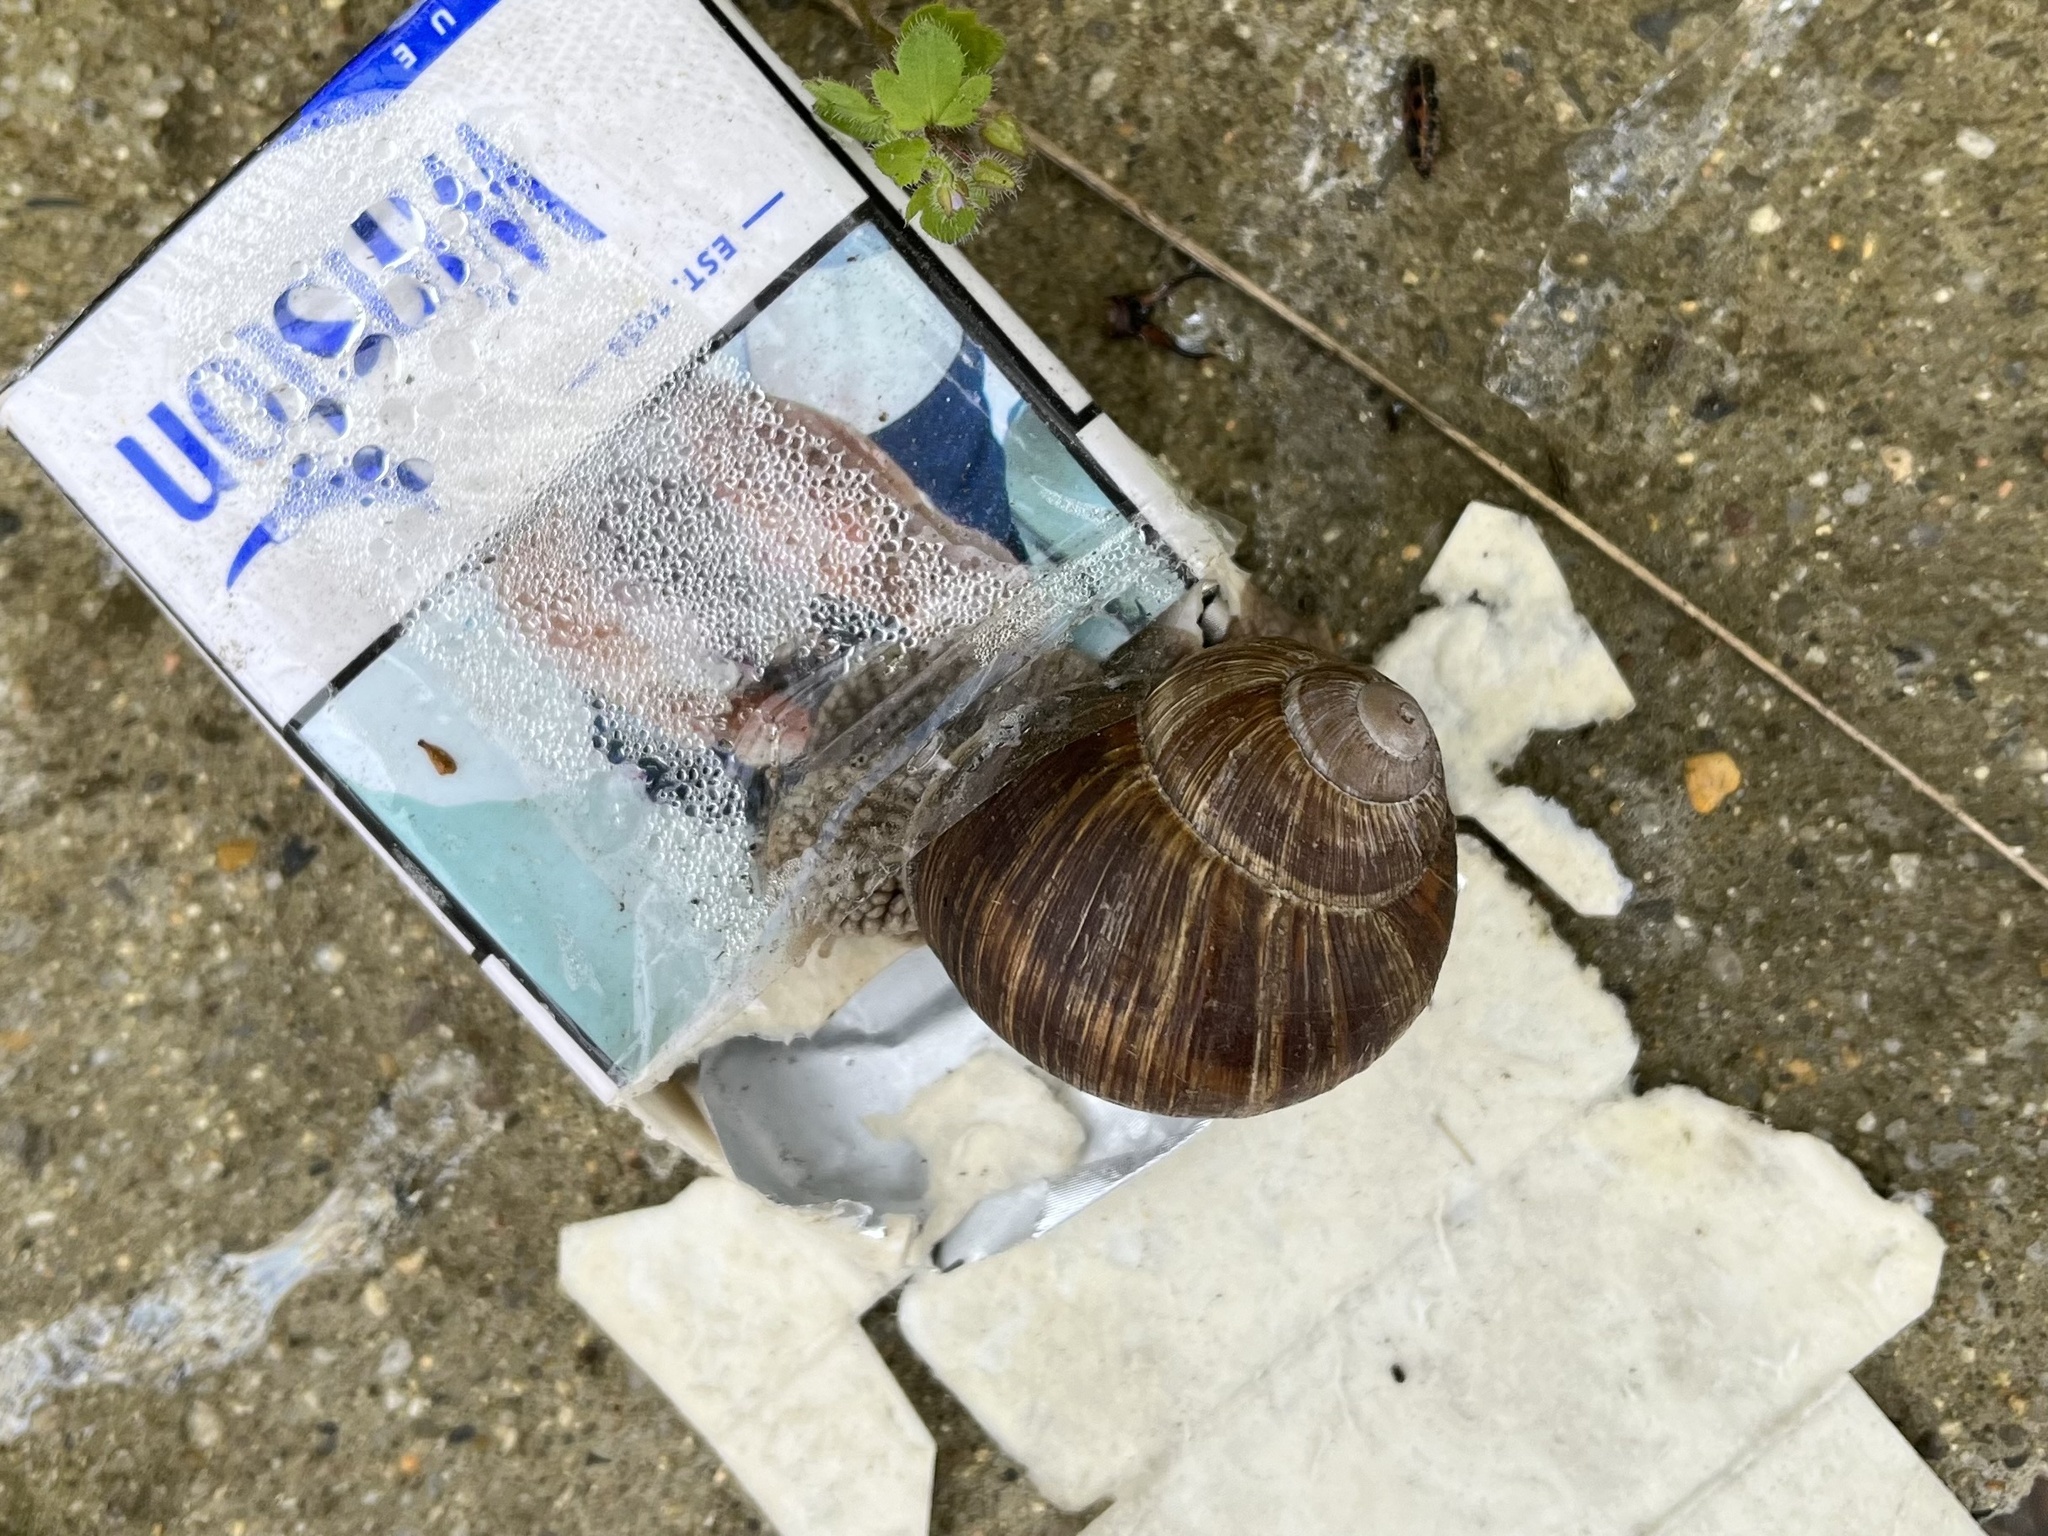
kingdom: Animalia
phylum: Mollusca
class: Gastropoda
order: Stylommatophora
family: Helicidae
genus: Helix
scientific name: Helix pomatia
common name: Roman snail
